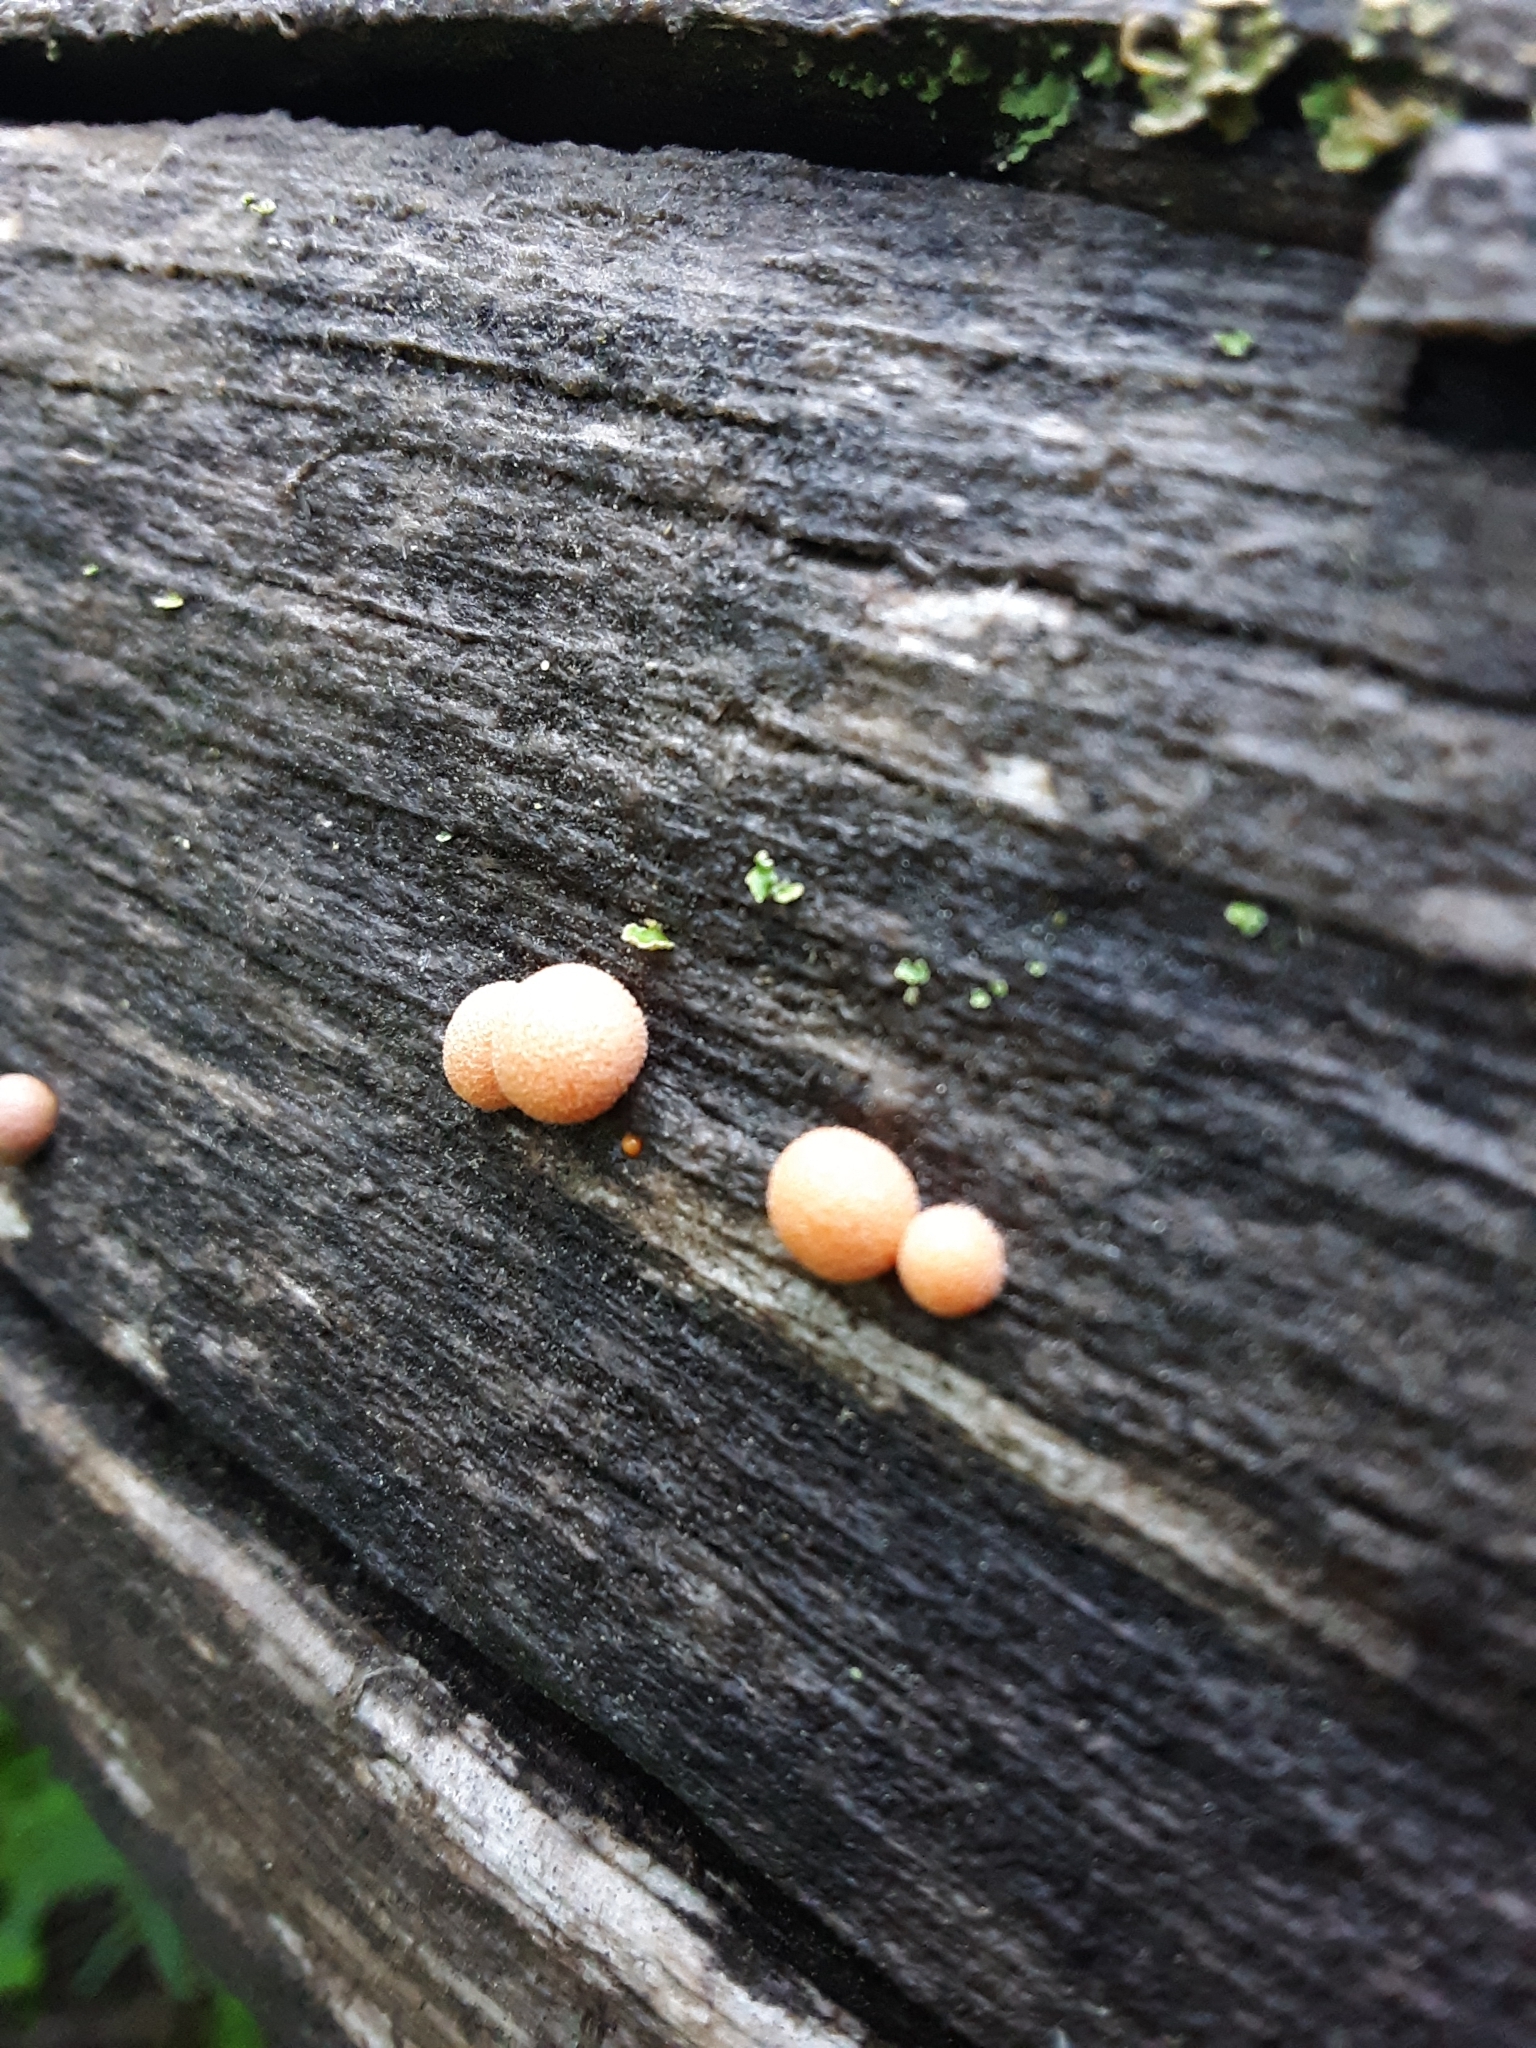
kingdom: Protozoa
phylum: Mycetozoa
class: Myxomycetes
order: Cribrariales
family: Tubiferaceae
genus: Lycogala
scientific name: Lycogala epidendrum
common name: Wolf's milk
